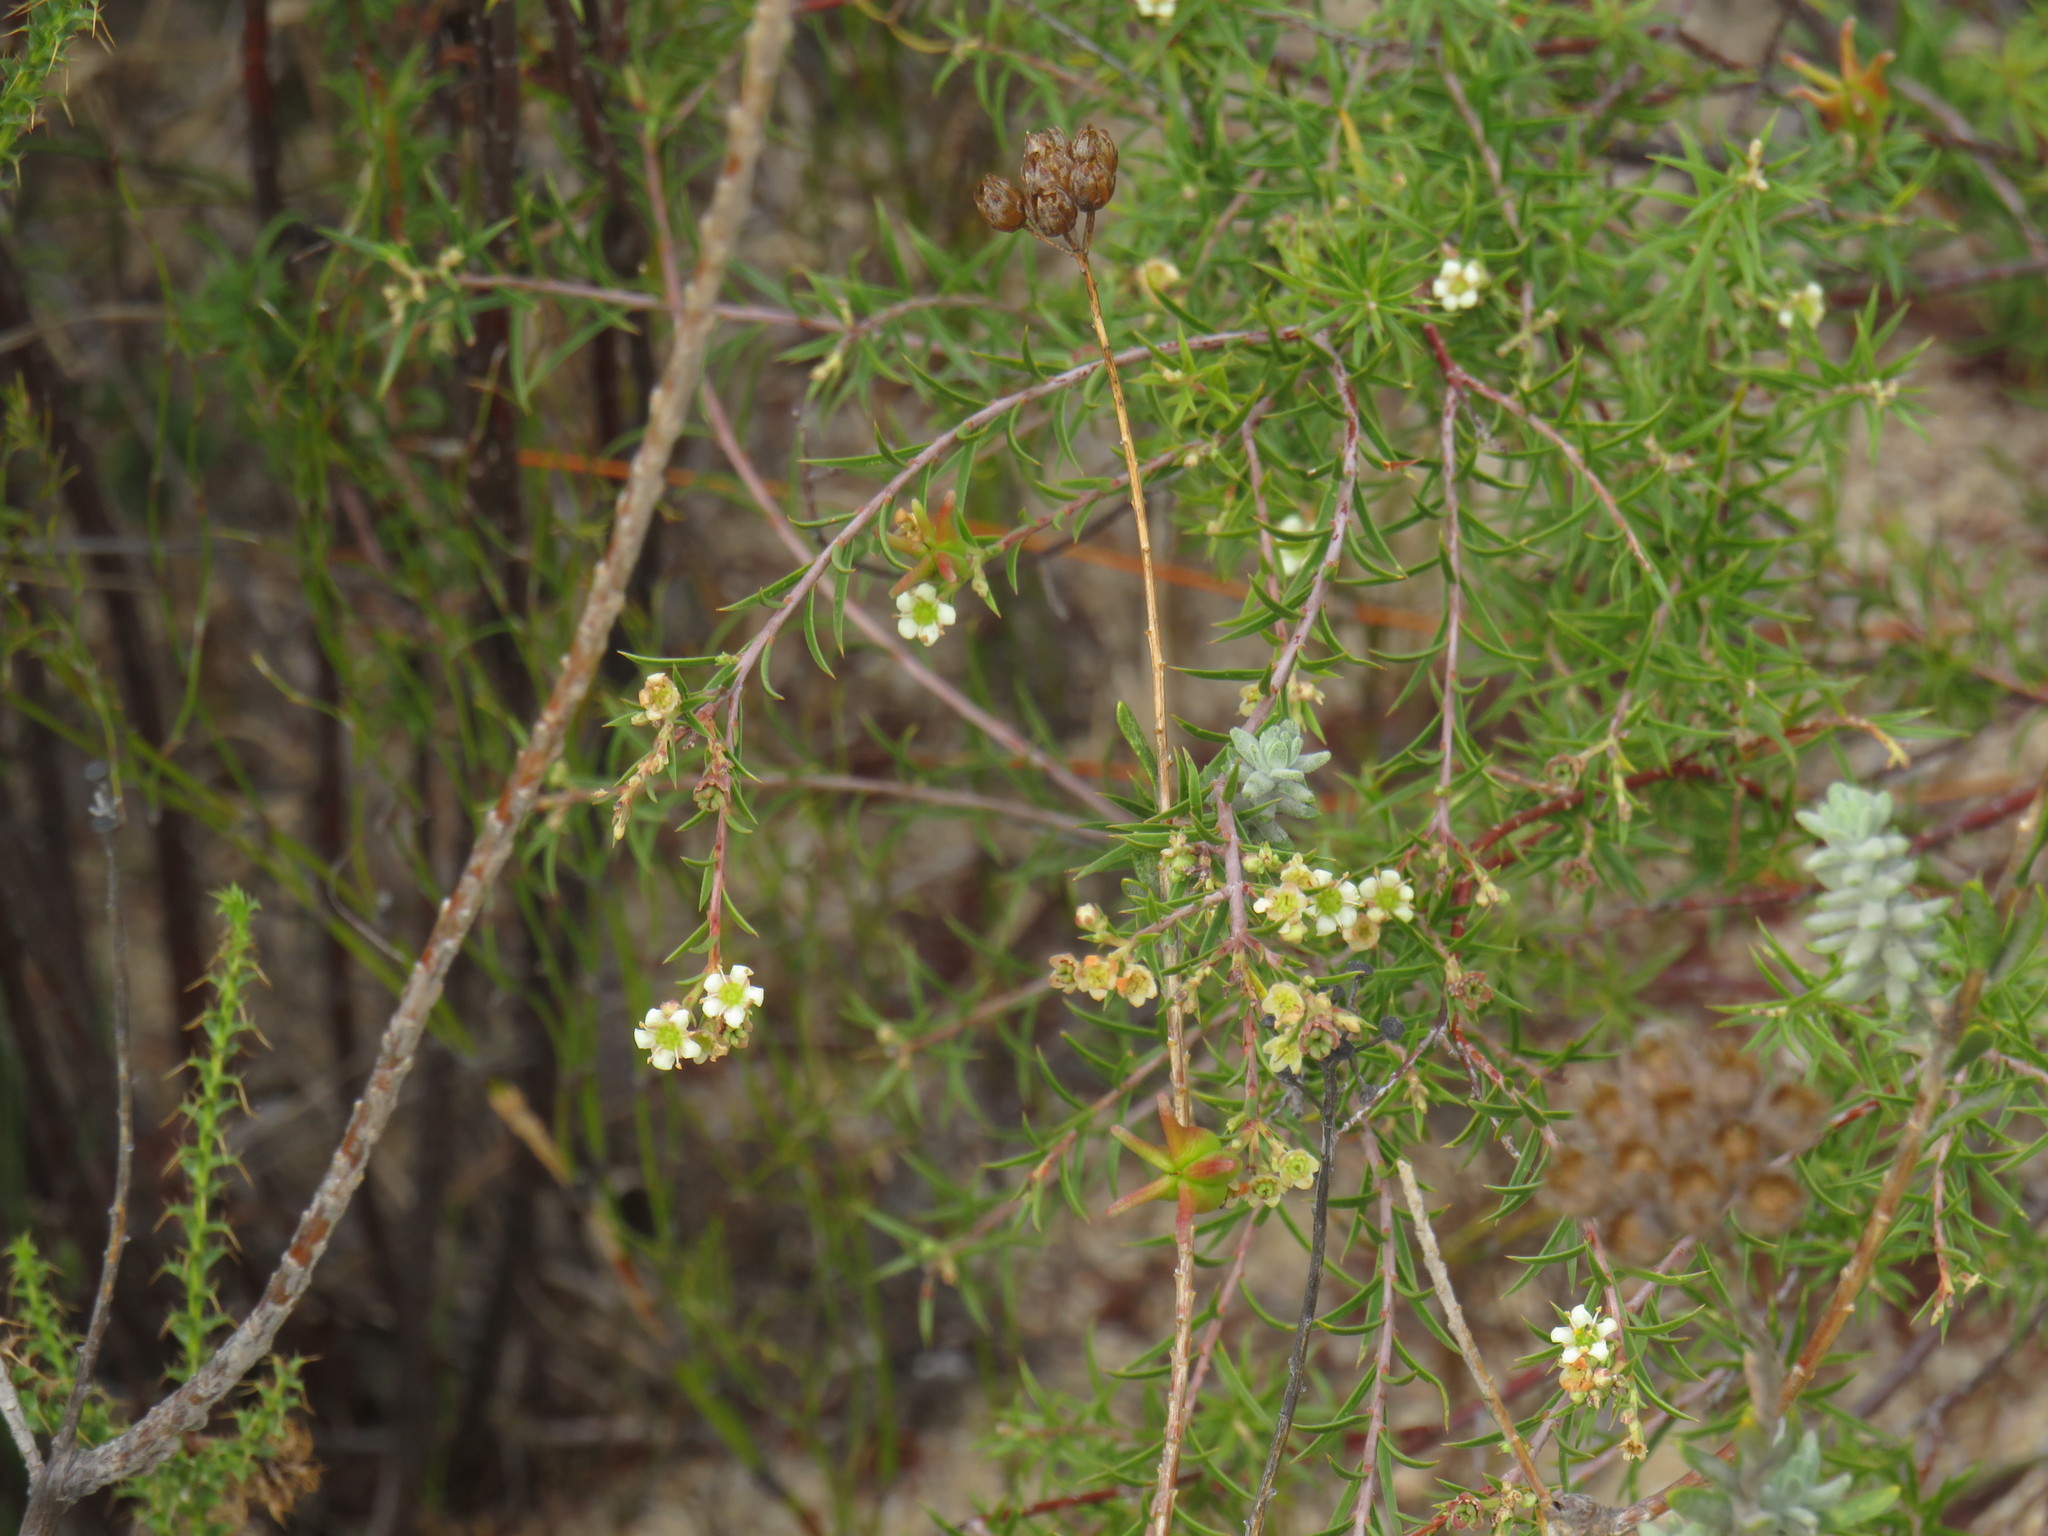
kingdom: Plantae
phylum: Tracheophyta
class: Magnoliopsida
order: Sapindales
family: Rutaceae
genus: Diosma
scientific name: Diosma pedicellata
